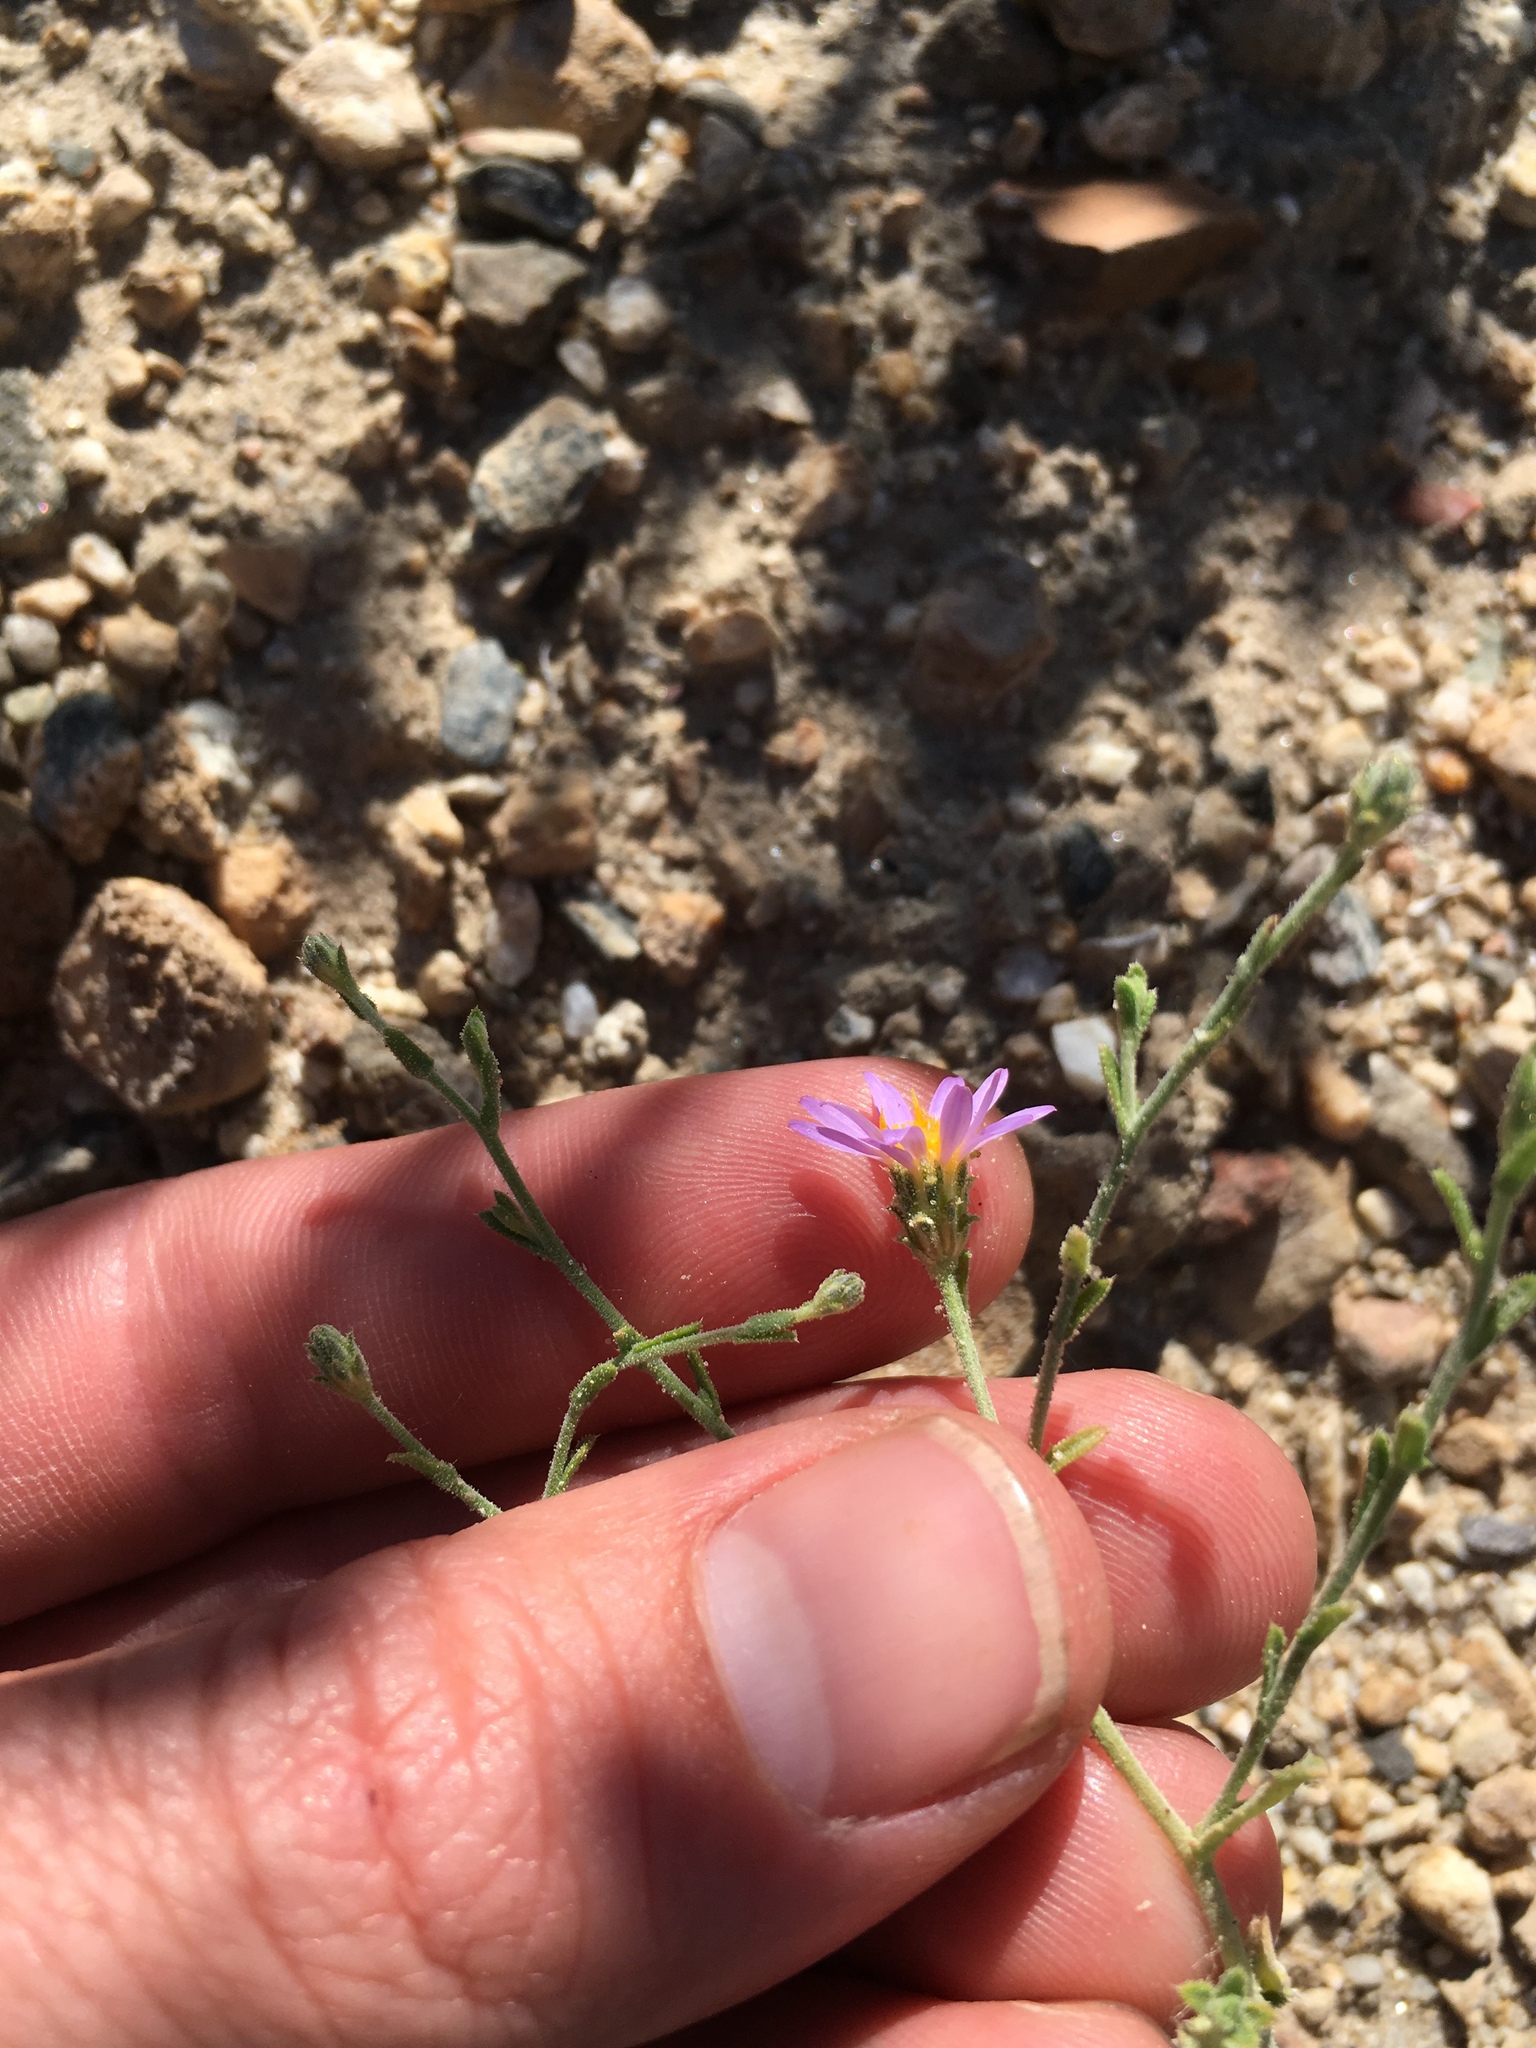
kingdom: Plantae
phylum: Tracheophyta
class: Magnoliopsida
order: Asterales
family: Asteraceae
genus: Dieteria
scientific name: Dieteria canescens
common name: Hoary-aster
